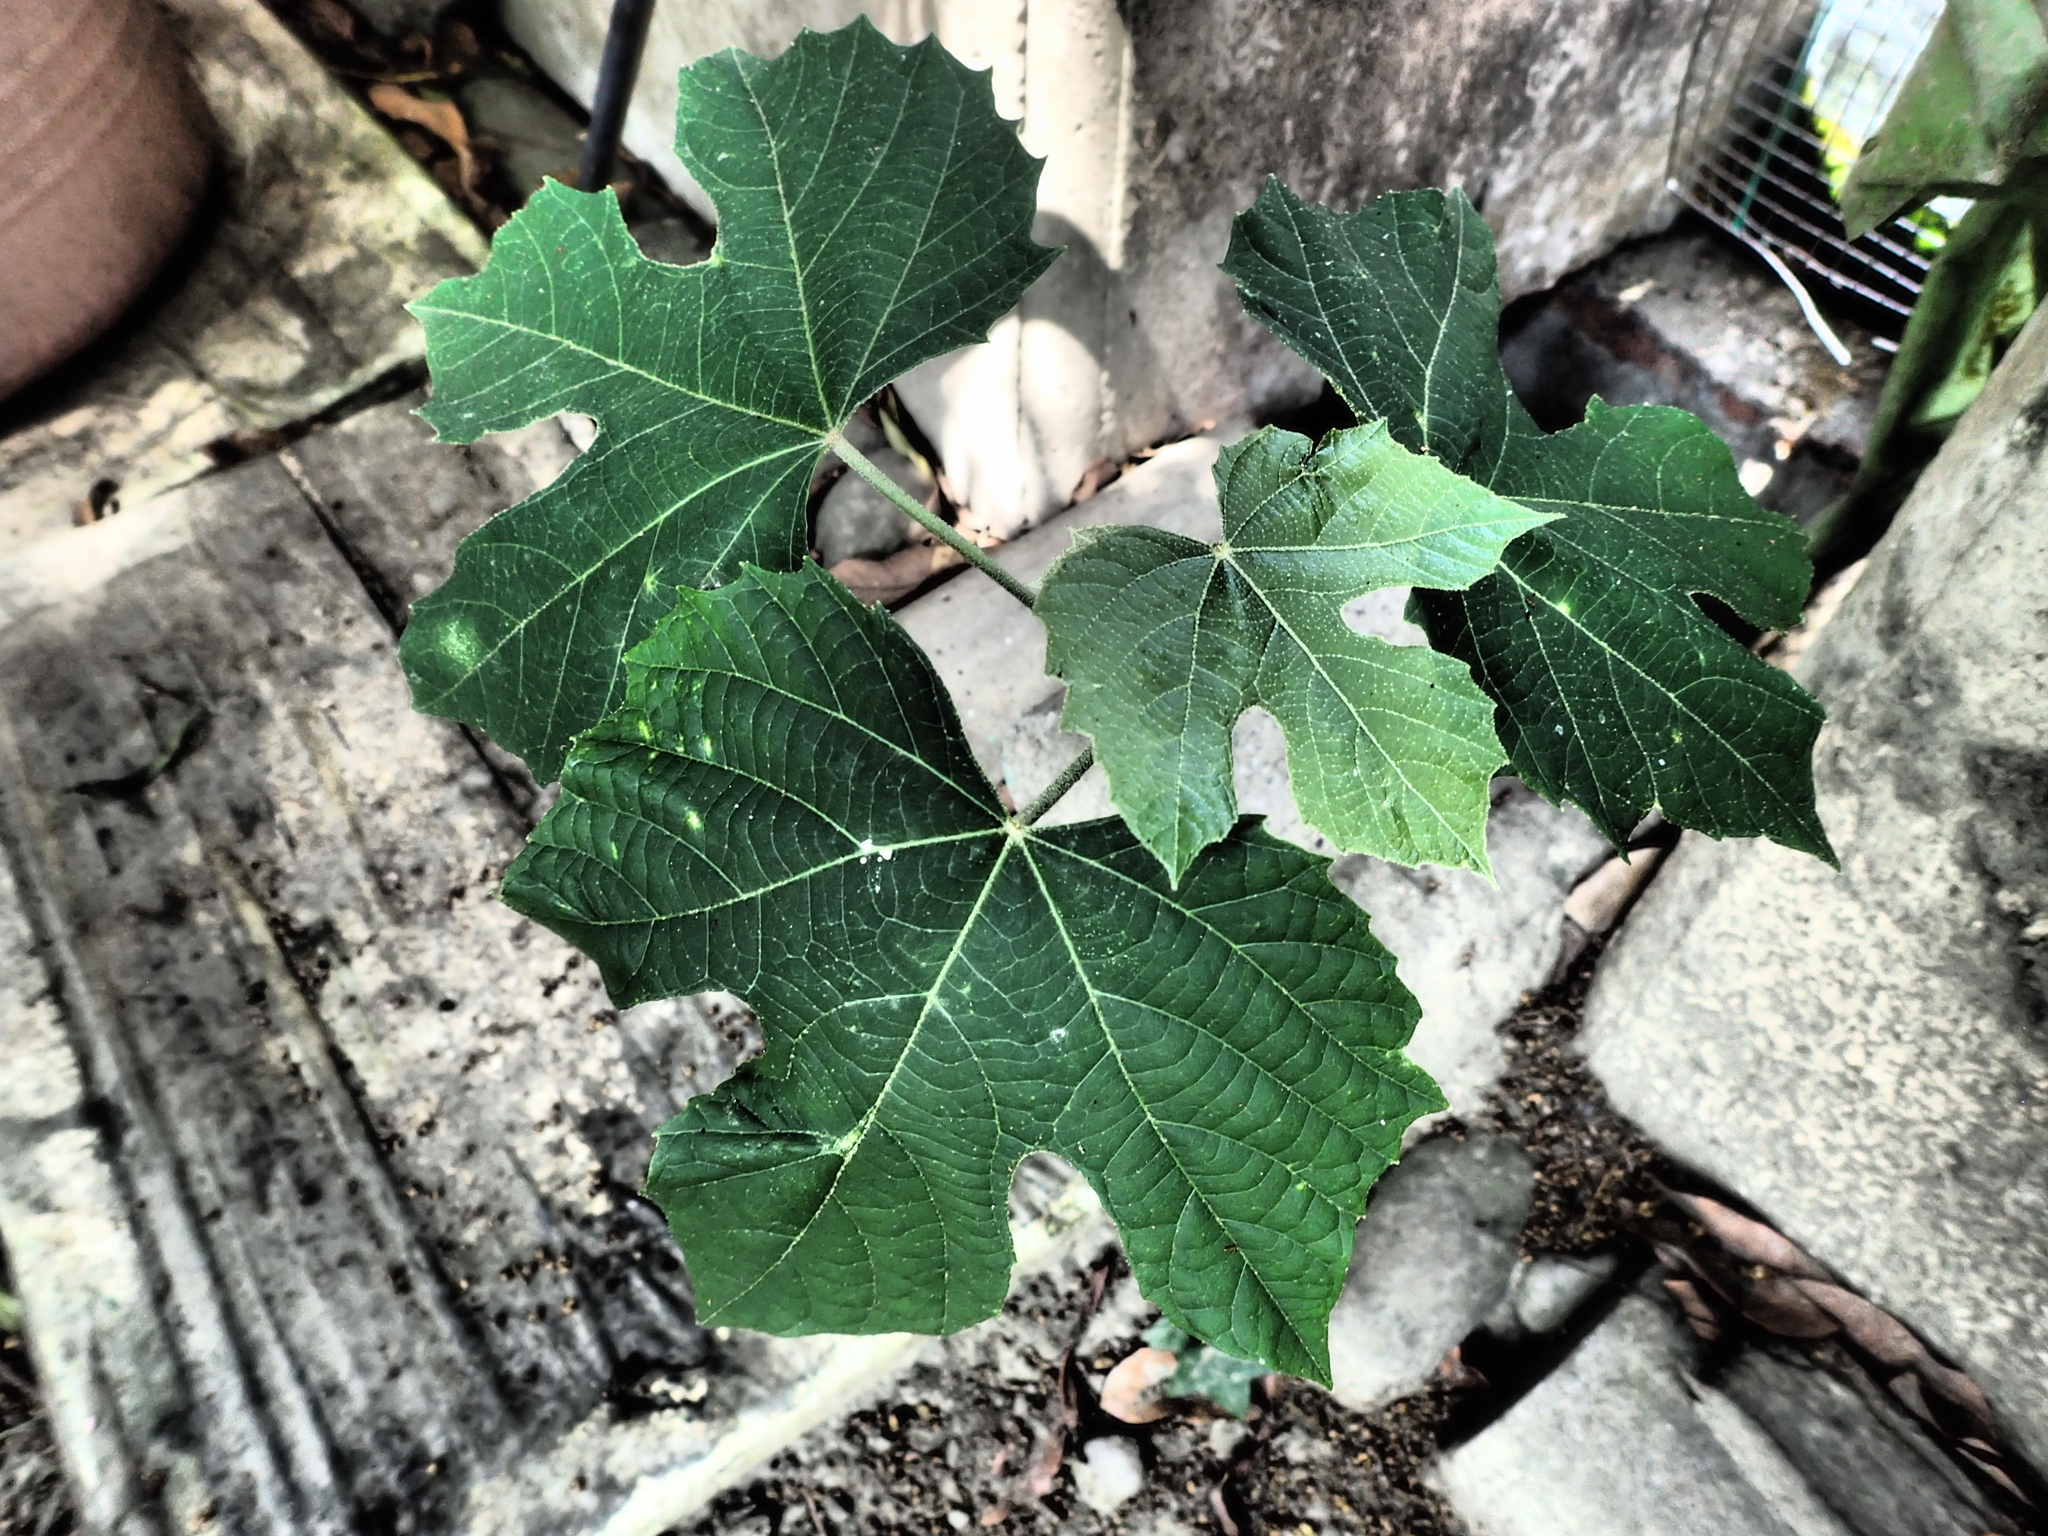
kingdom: Plantae
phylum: Tracheophyta
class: Magnoliopsida
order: Malpighiales
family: Euphorbiaceae
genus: Melanolepis
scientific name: Melanolepis multiglandulosa
